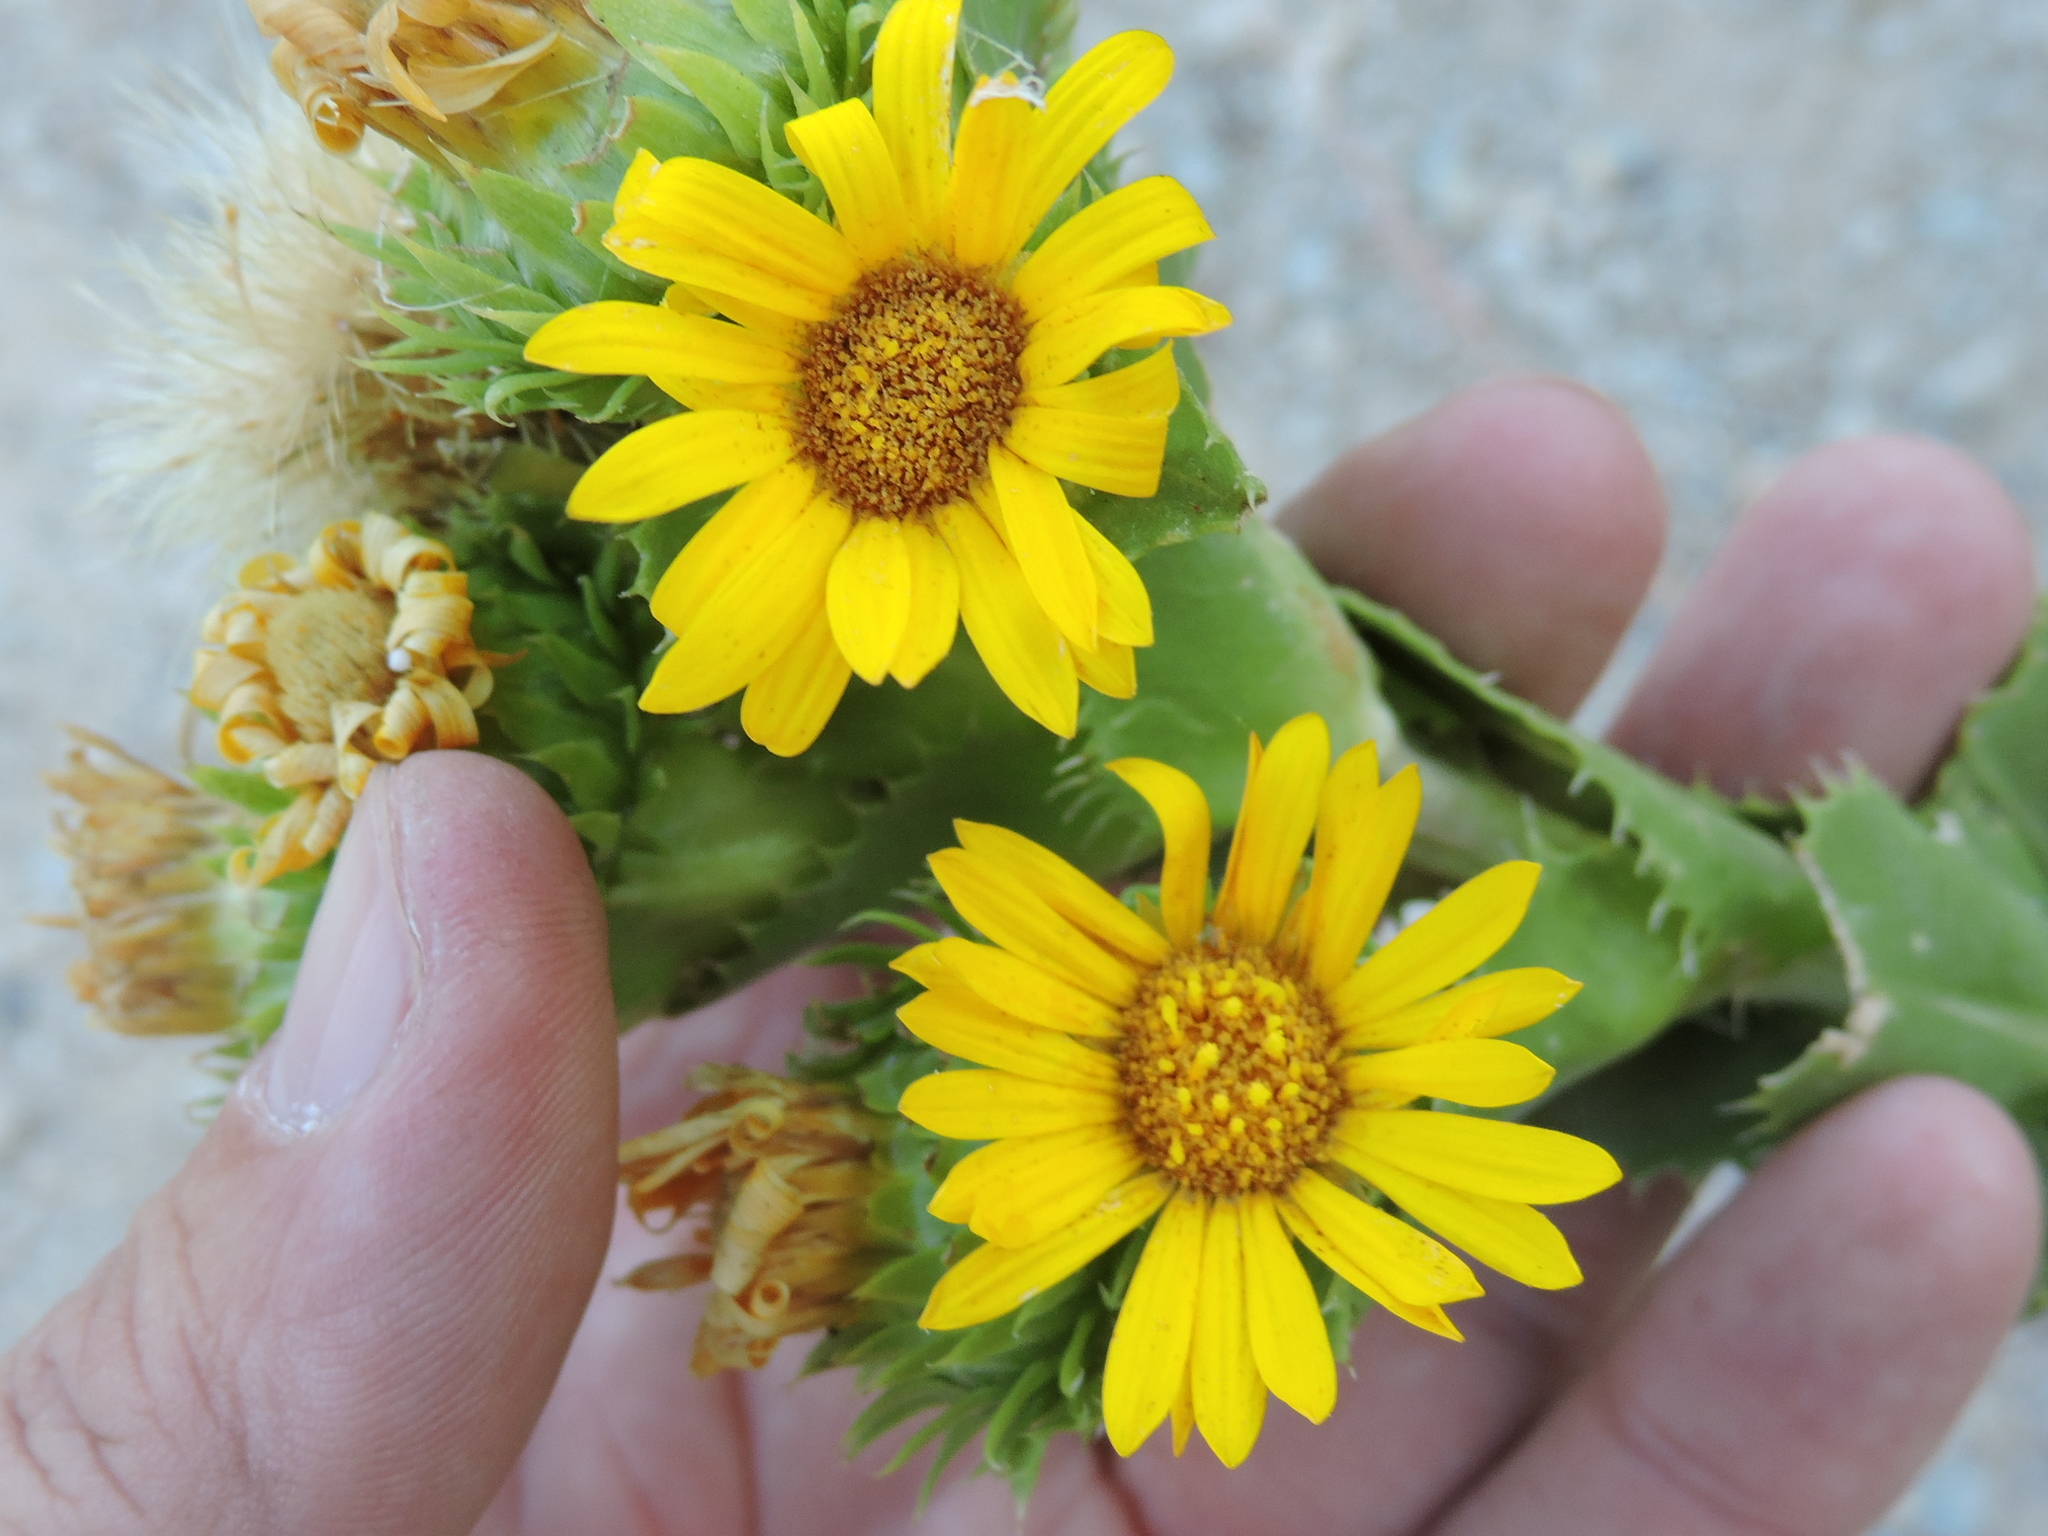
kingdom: Plantae
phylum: Tracheophyta
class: Magnoliopsida
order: Asterales
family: Asteraceae
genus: Grindelia
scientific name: Grindelia ciliata
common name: Goldenweed
